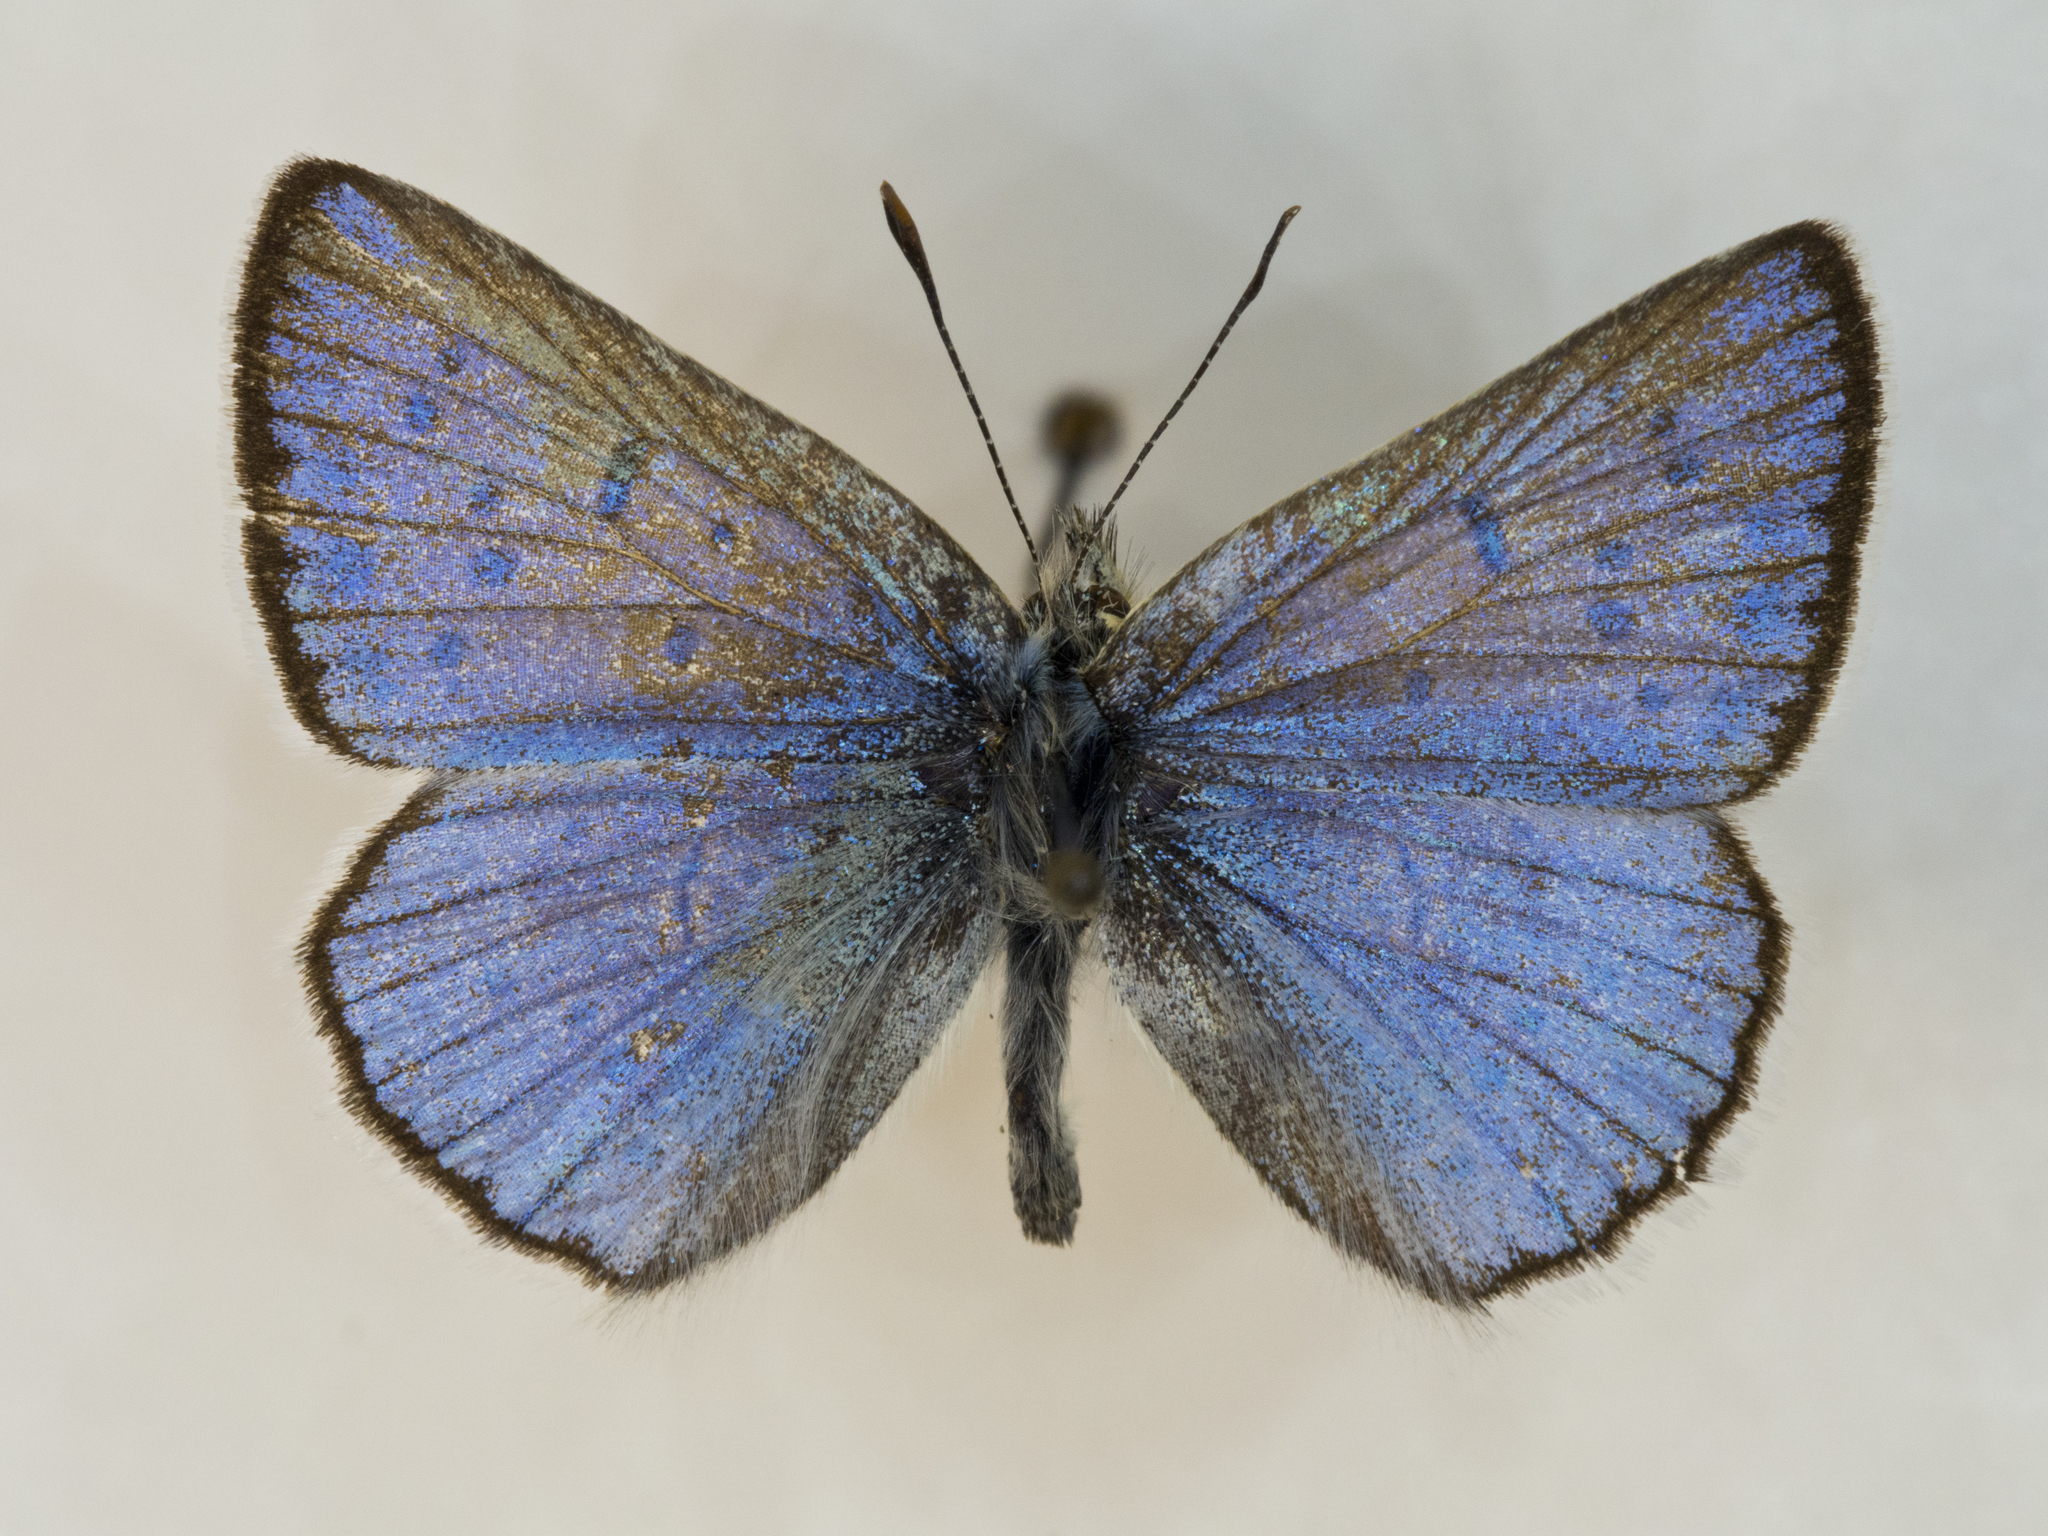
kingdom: Animalia
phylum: Arthropoda
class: Insecta
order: Lepidoptera
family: Lycaenidae
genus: Tharsalea
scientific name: Tharsalea heteronea
